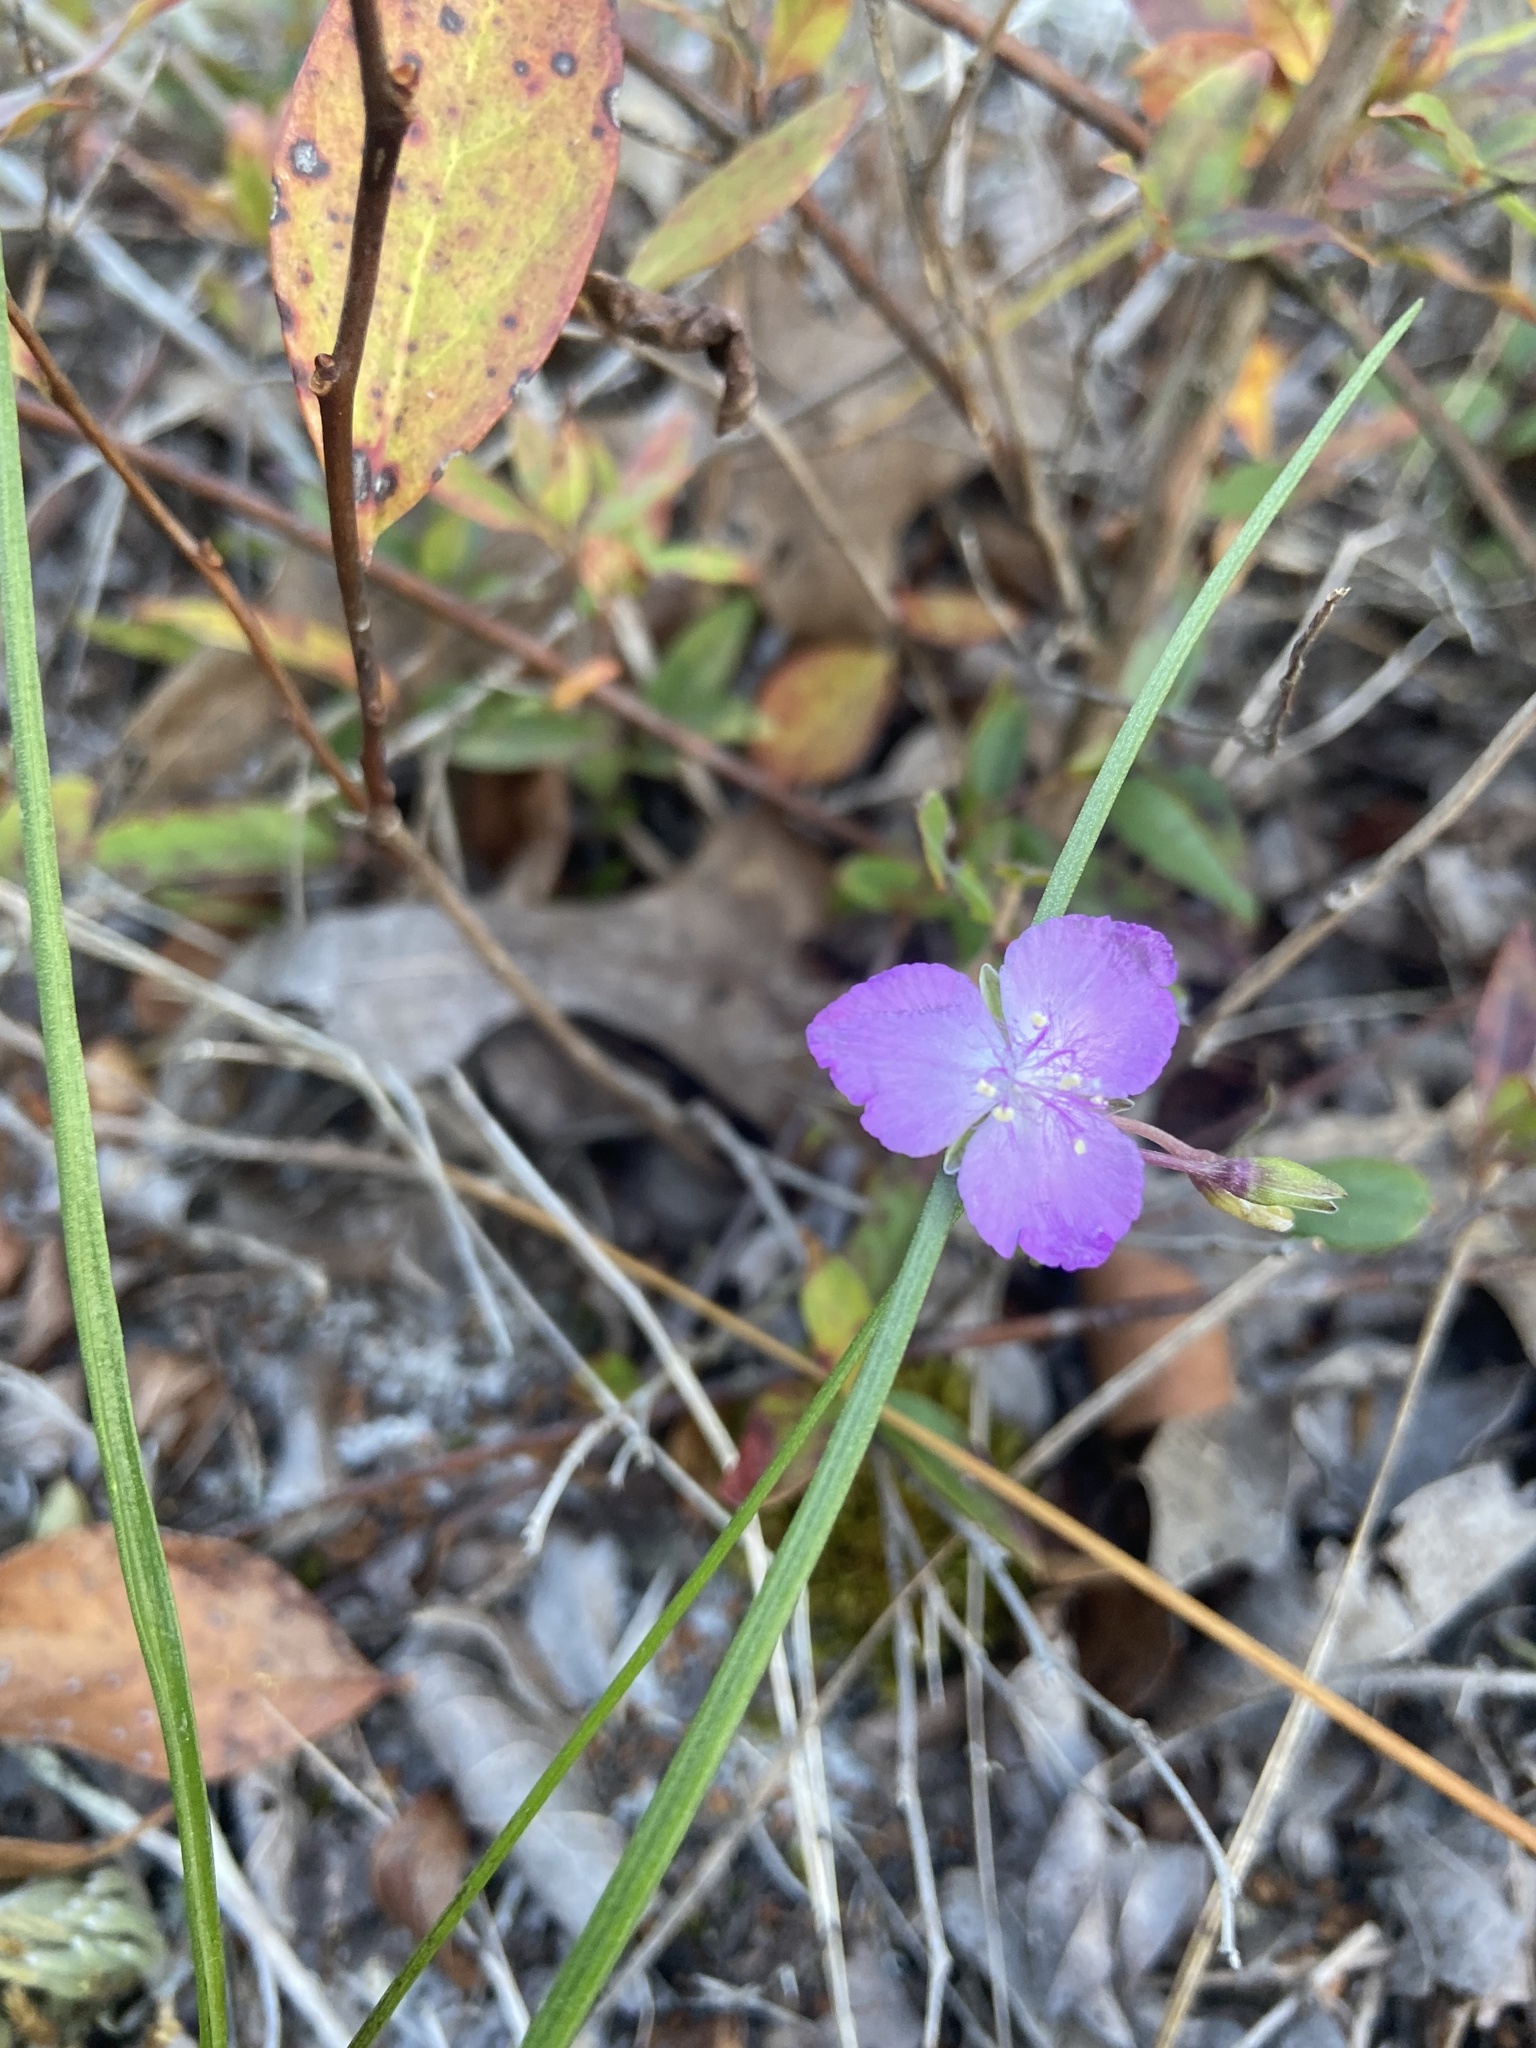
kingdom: Plantae
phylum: Tracheophyta
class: Liliopsida
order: Commelinales
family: Commelinaceae
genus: Callisia
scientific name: Callisia graminea
